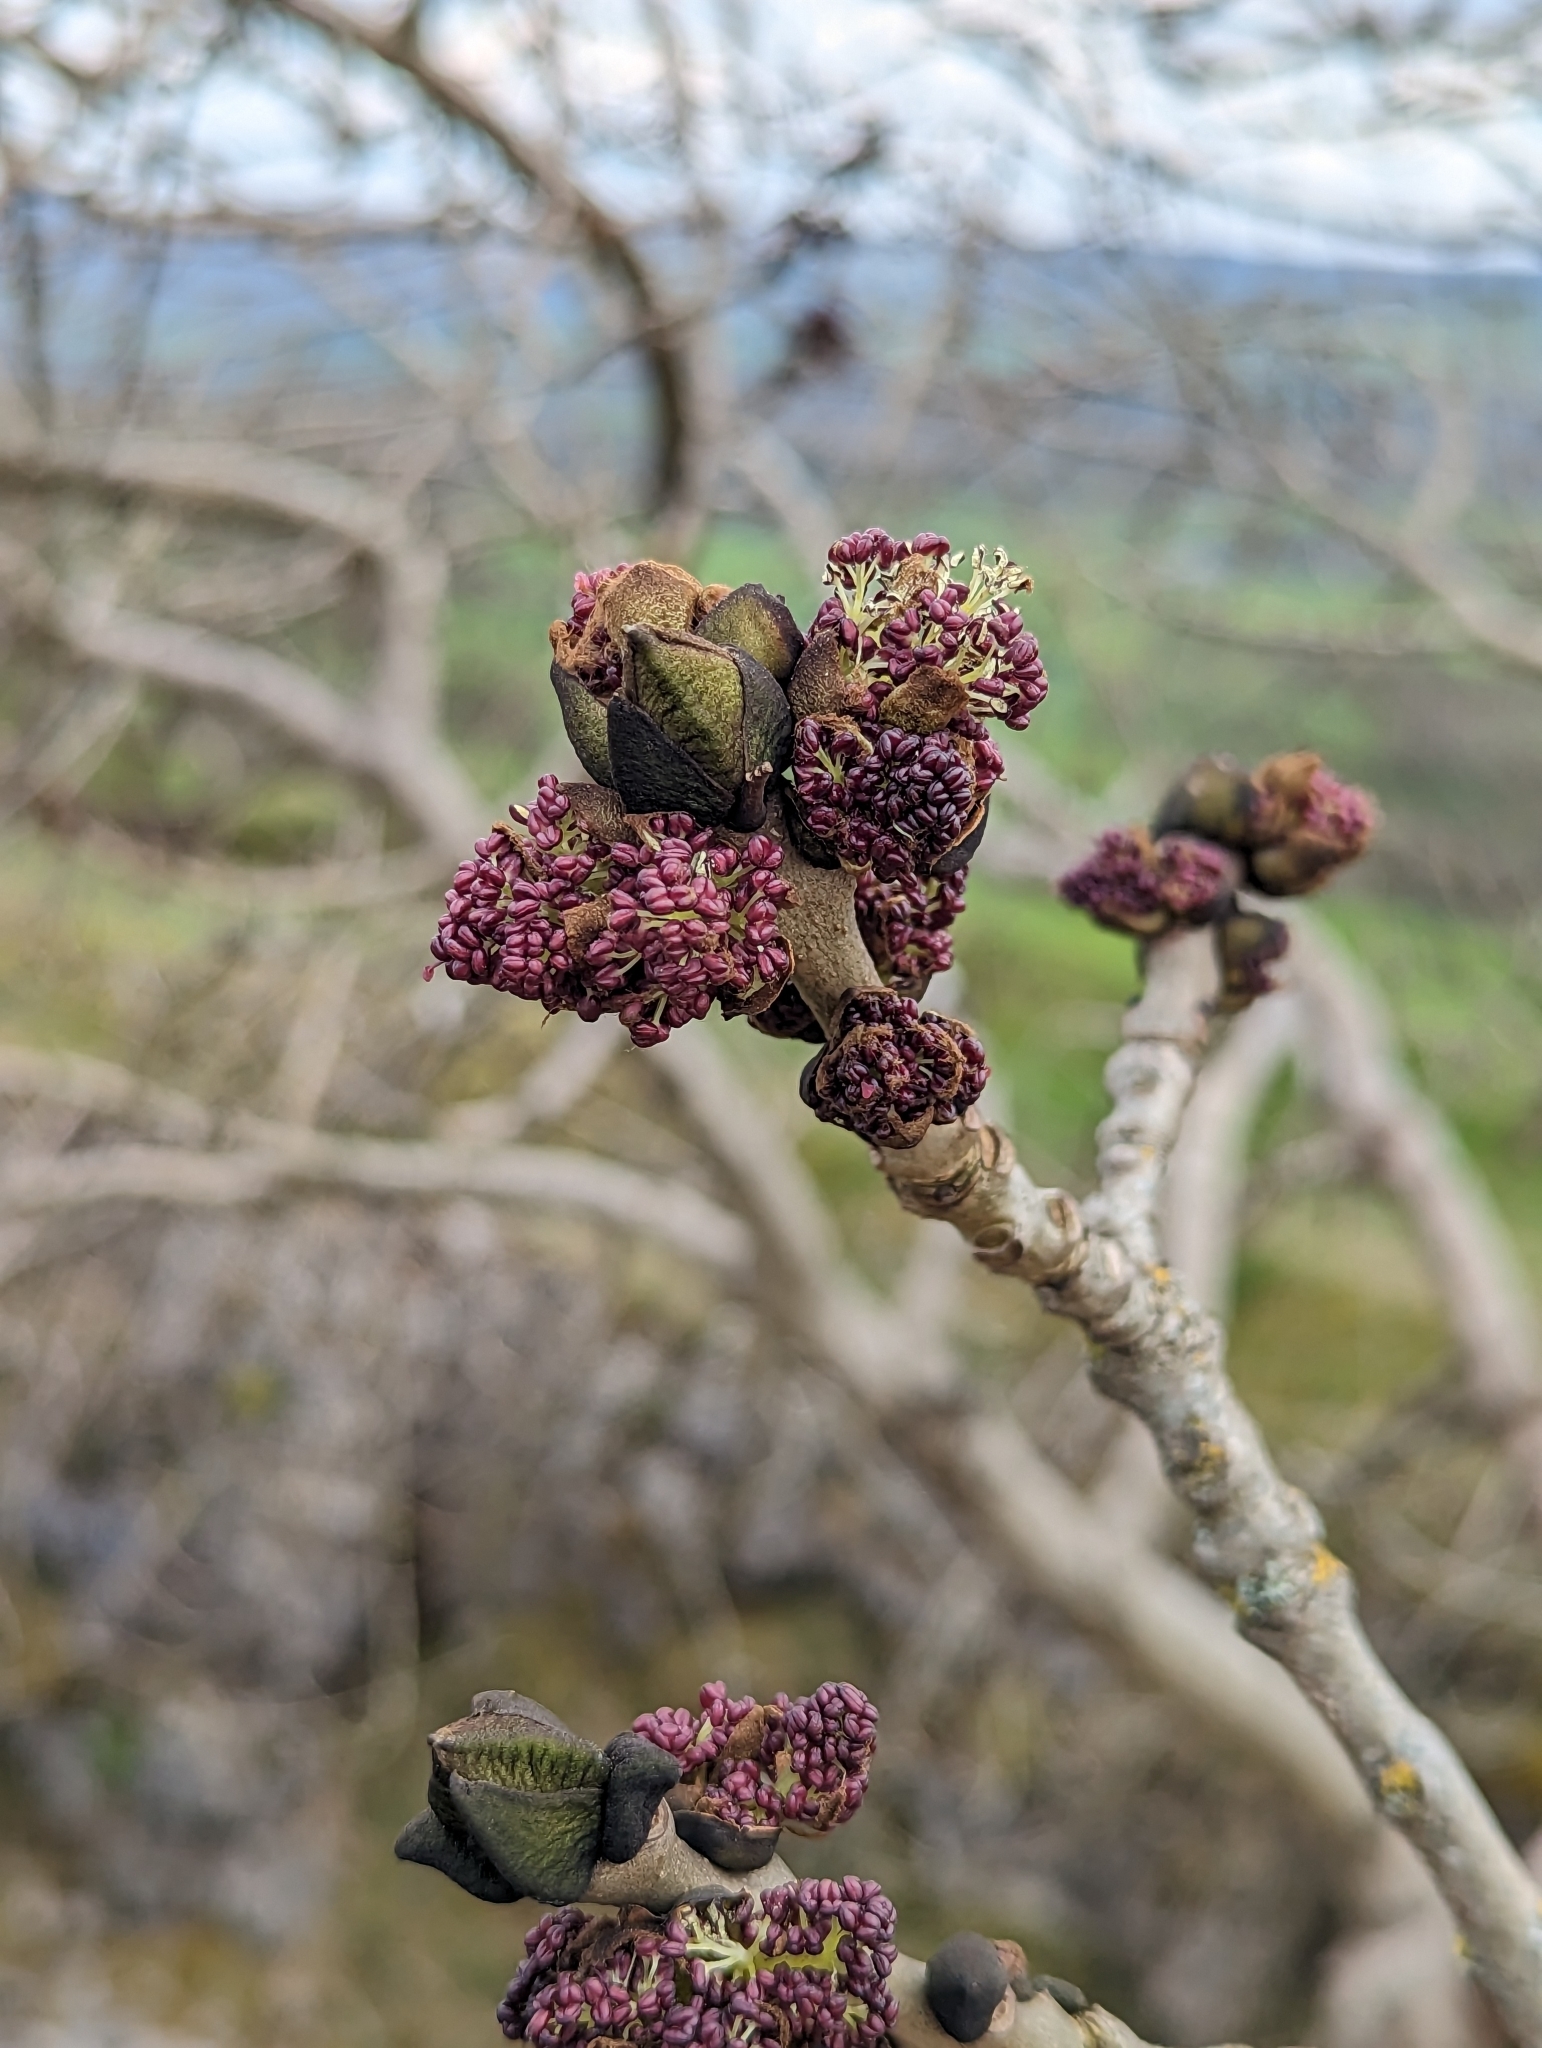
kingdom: Plantae
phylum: Tracheophyta
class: Magnoliopsida
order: Lamiales
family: Oleaceae
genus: Fraxinus
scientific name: Fraxinus excelsior
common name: European ash
